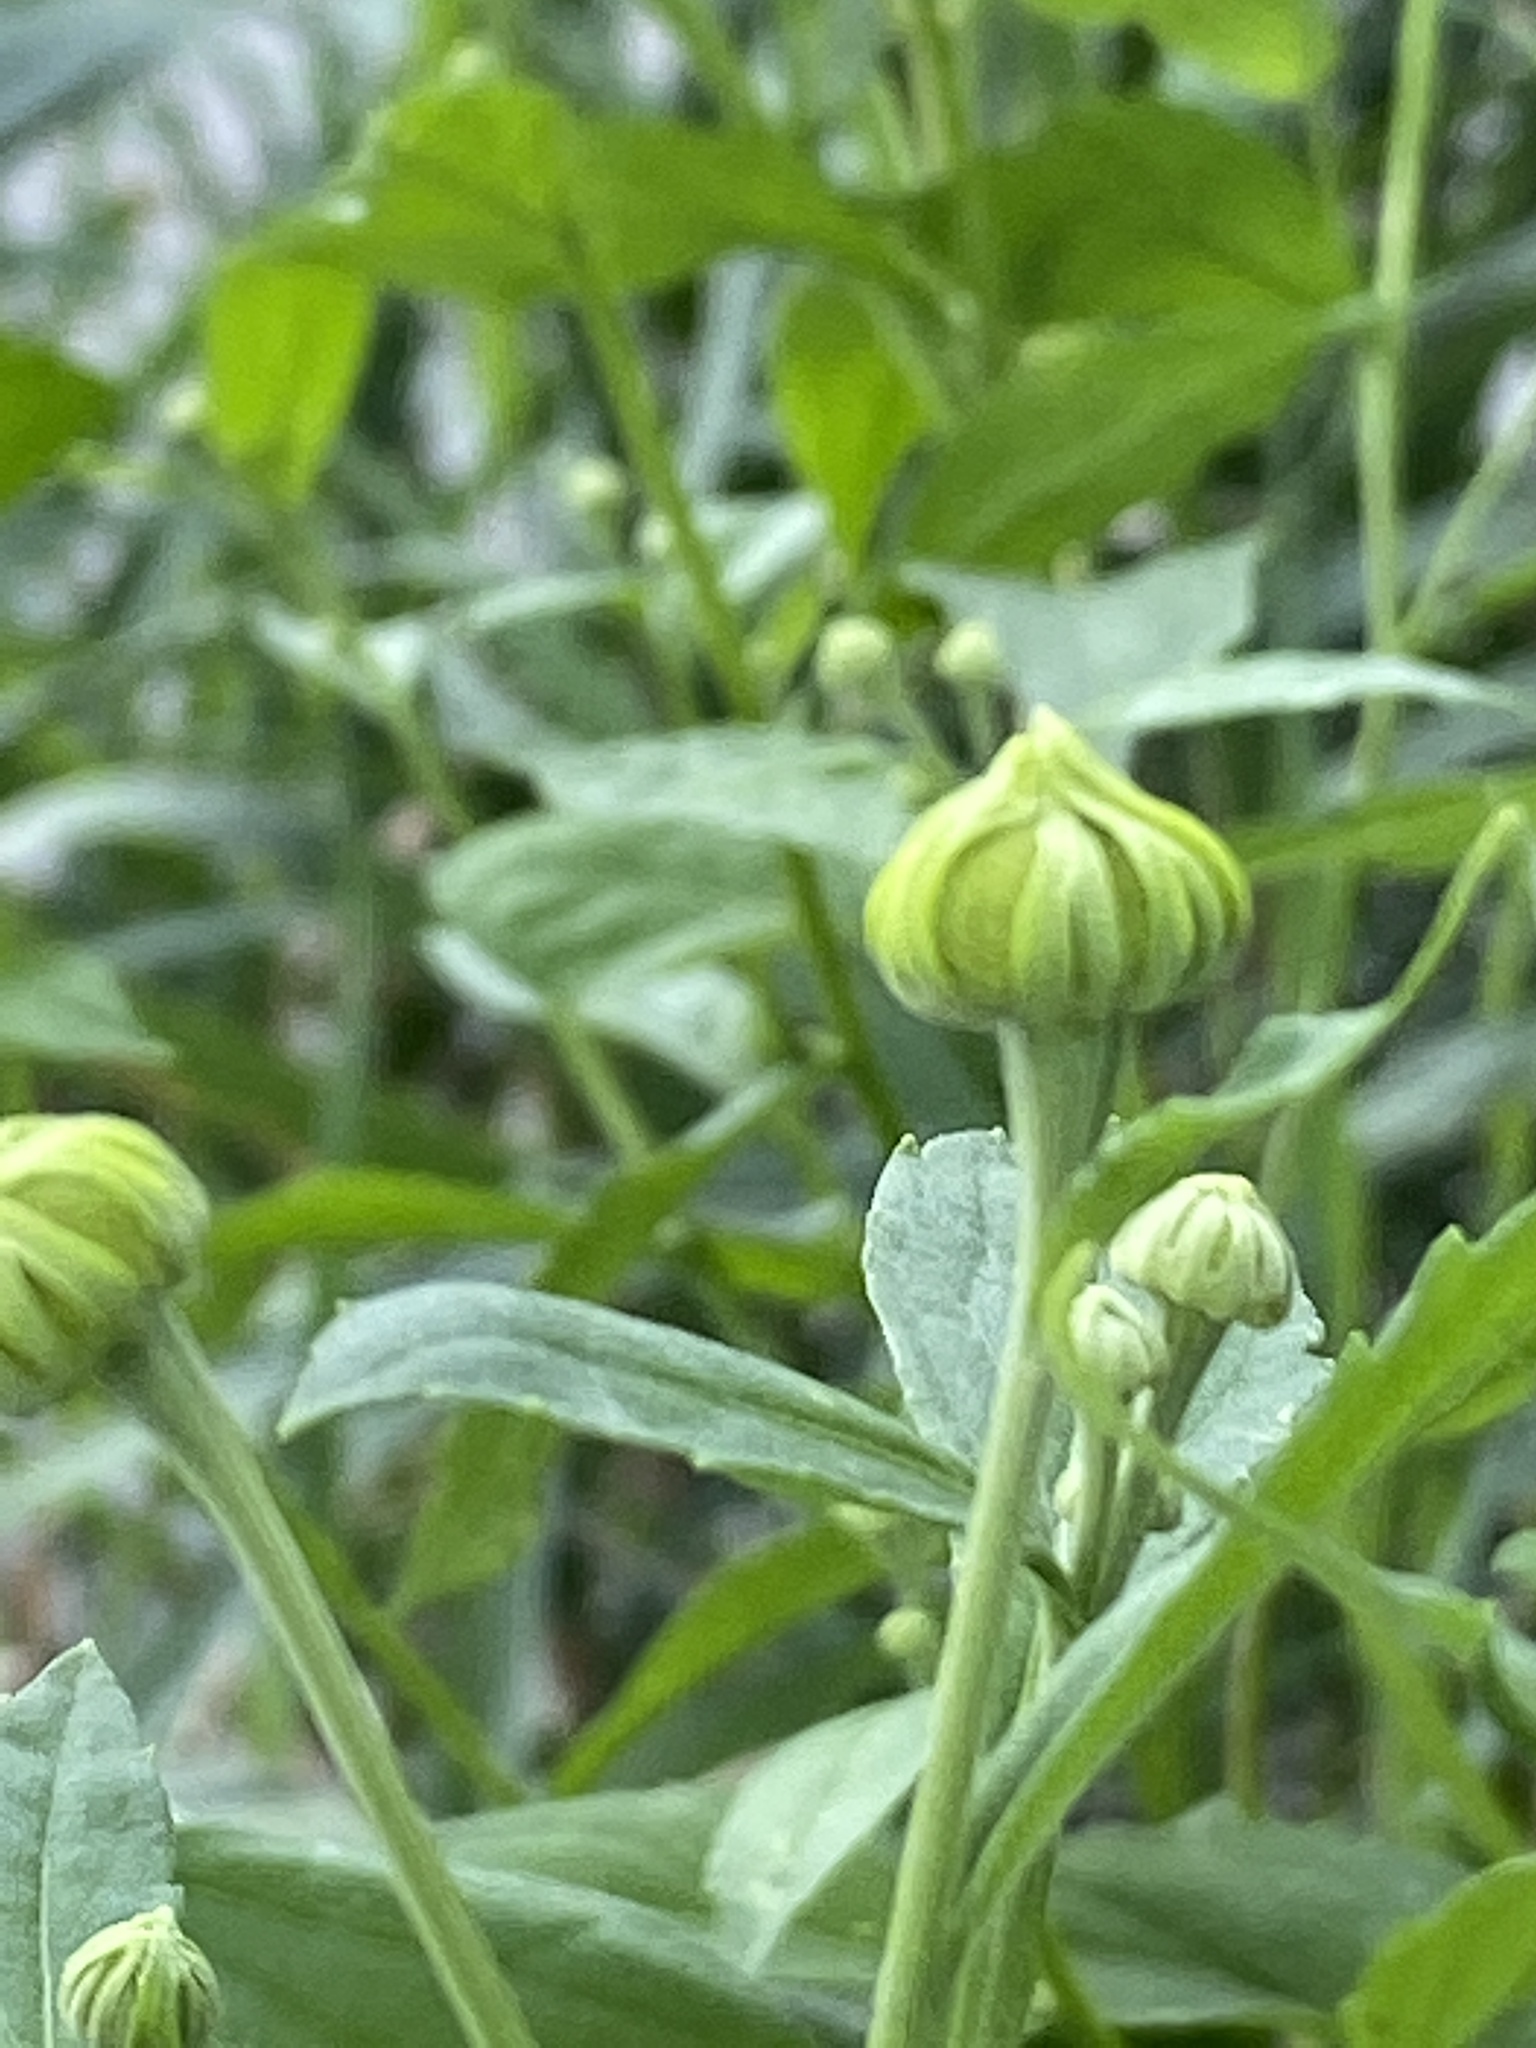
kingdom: Plantae
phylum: Tracheophyta
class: Magnoliopsida
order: Asterales
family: Asteraceae
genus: Helenium
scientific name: Helenium autumnale
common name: Sneezeweed
